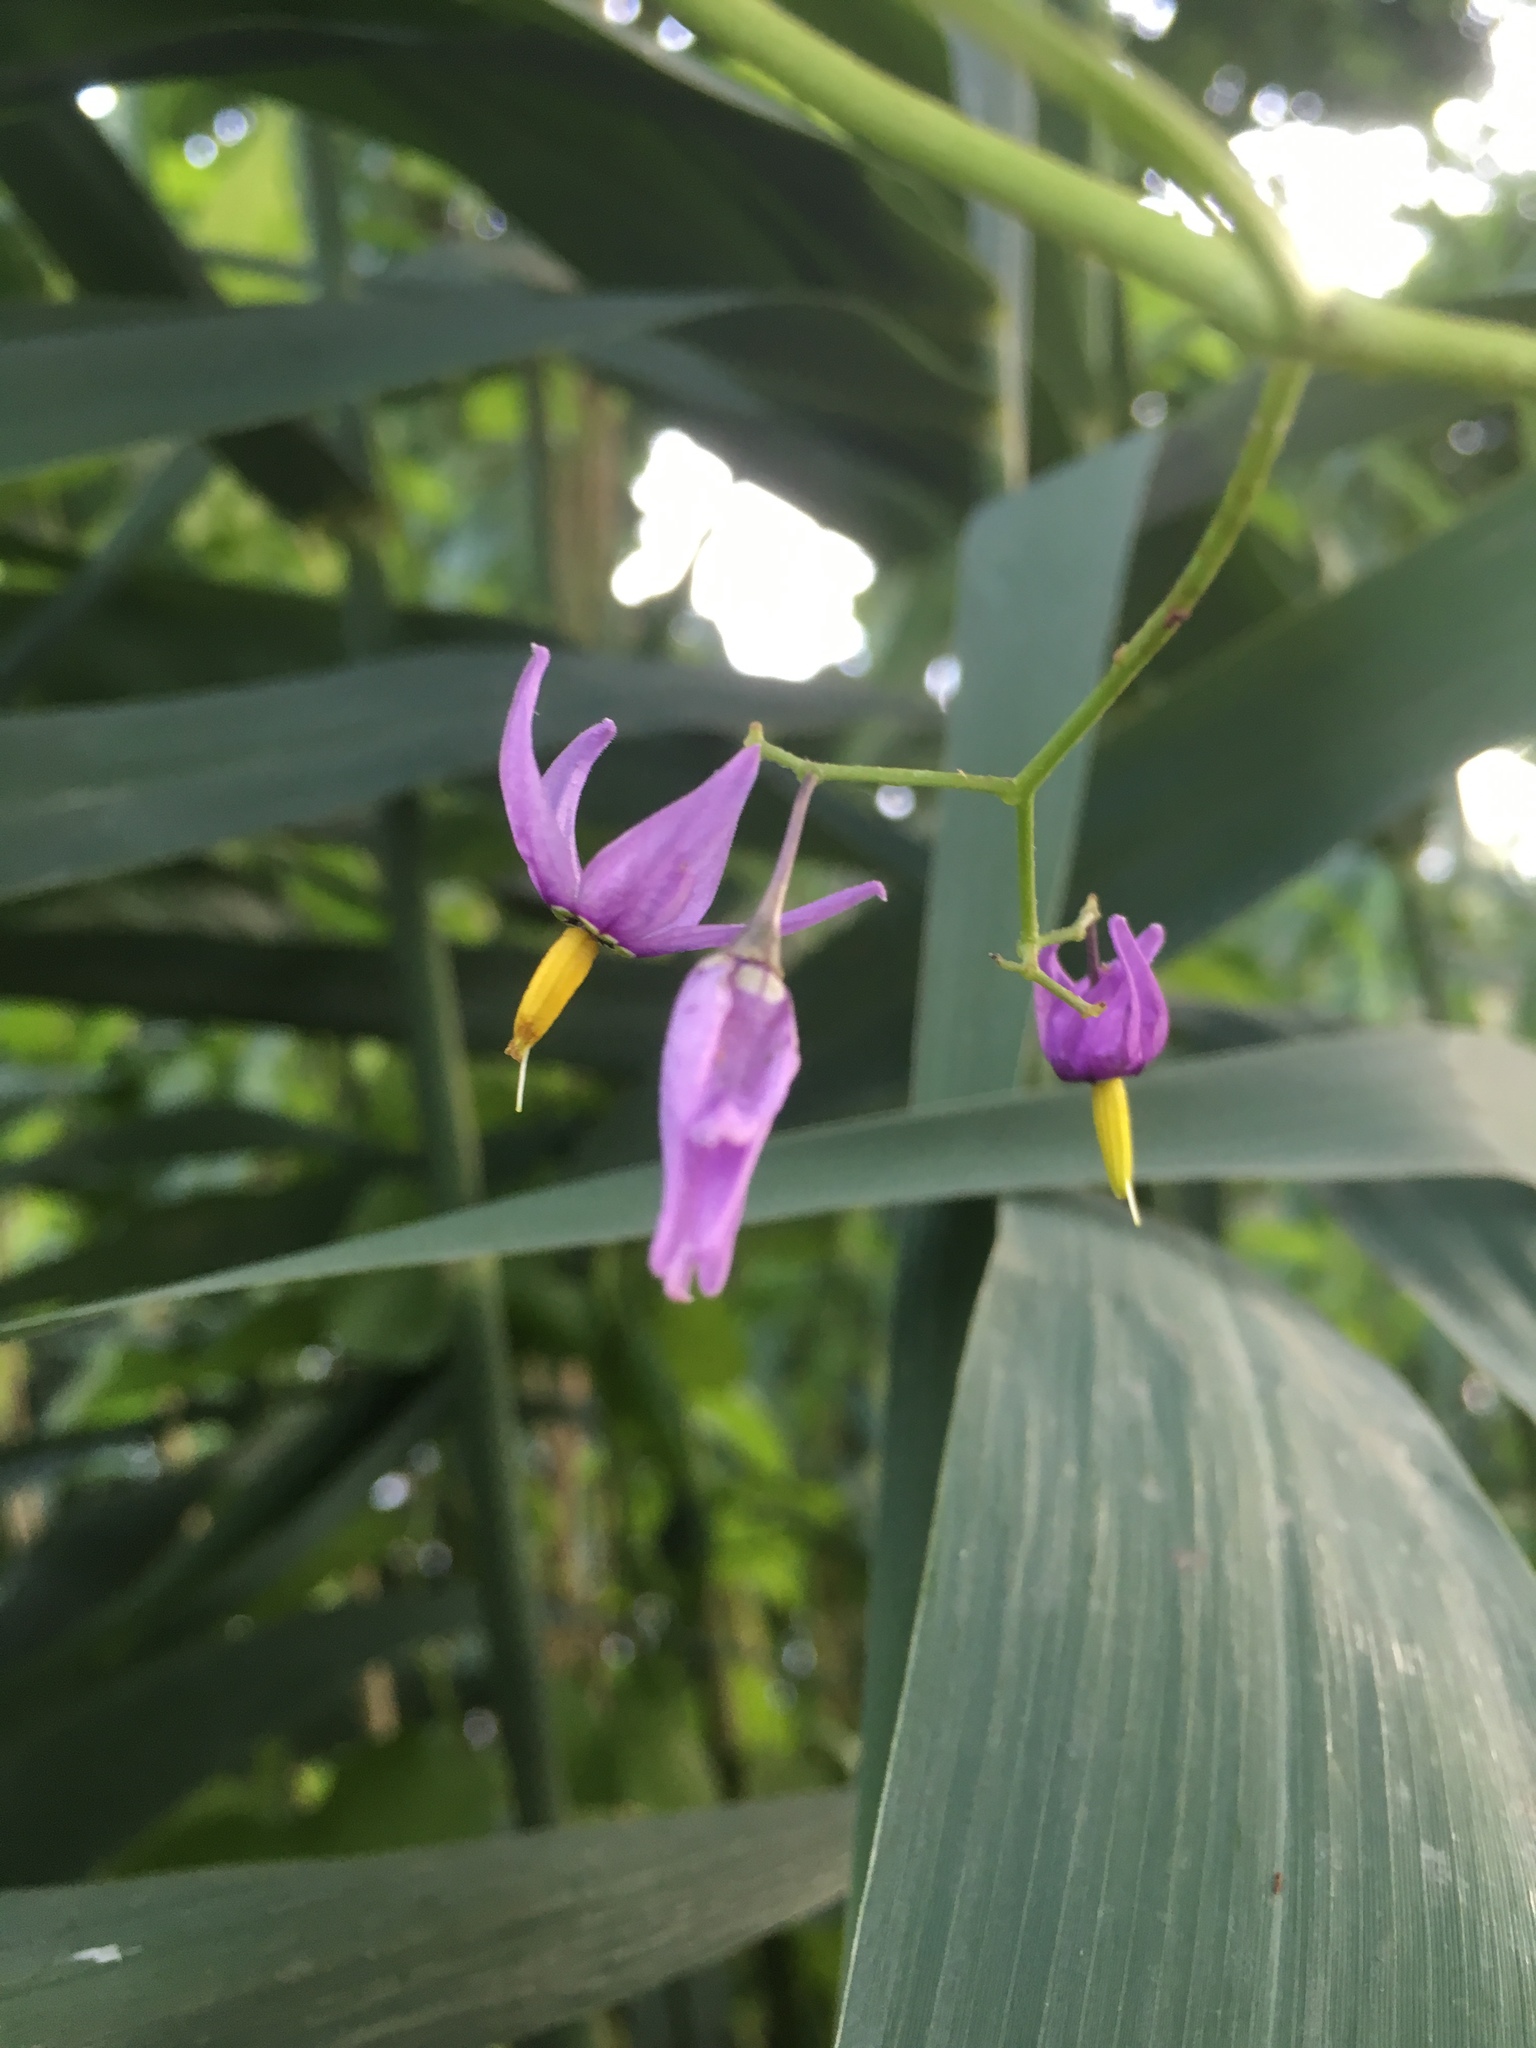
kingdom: Plantae
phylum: Tracheophyta
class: Magnoliopsida
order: Solanales
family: Solanaceae
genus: Solanum
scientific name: Solanum dulcamara
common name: Climbing nightshade
